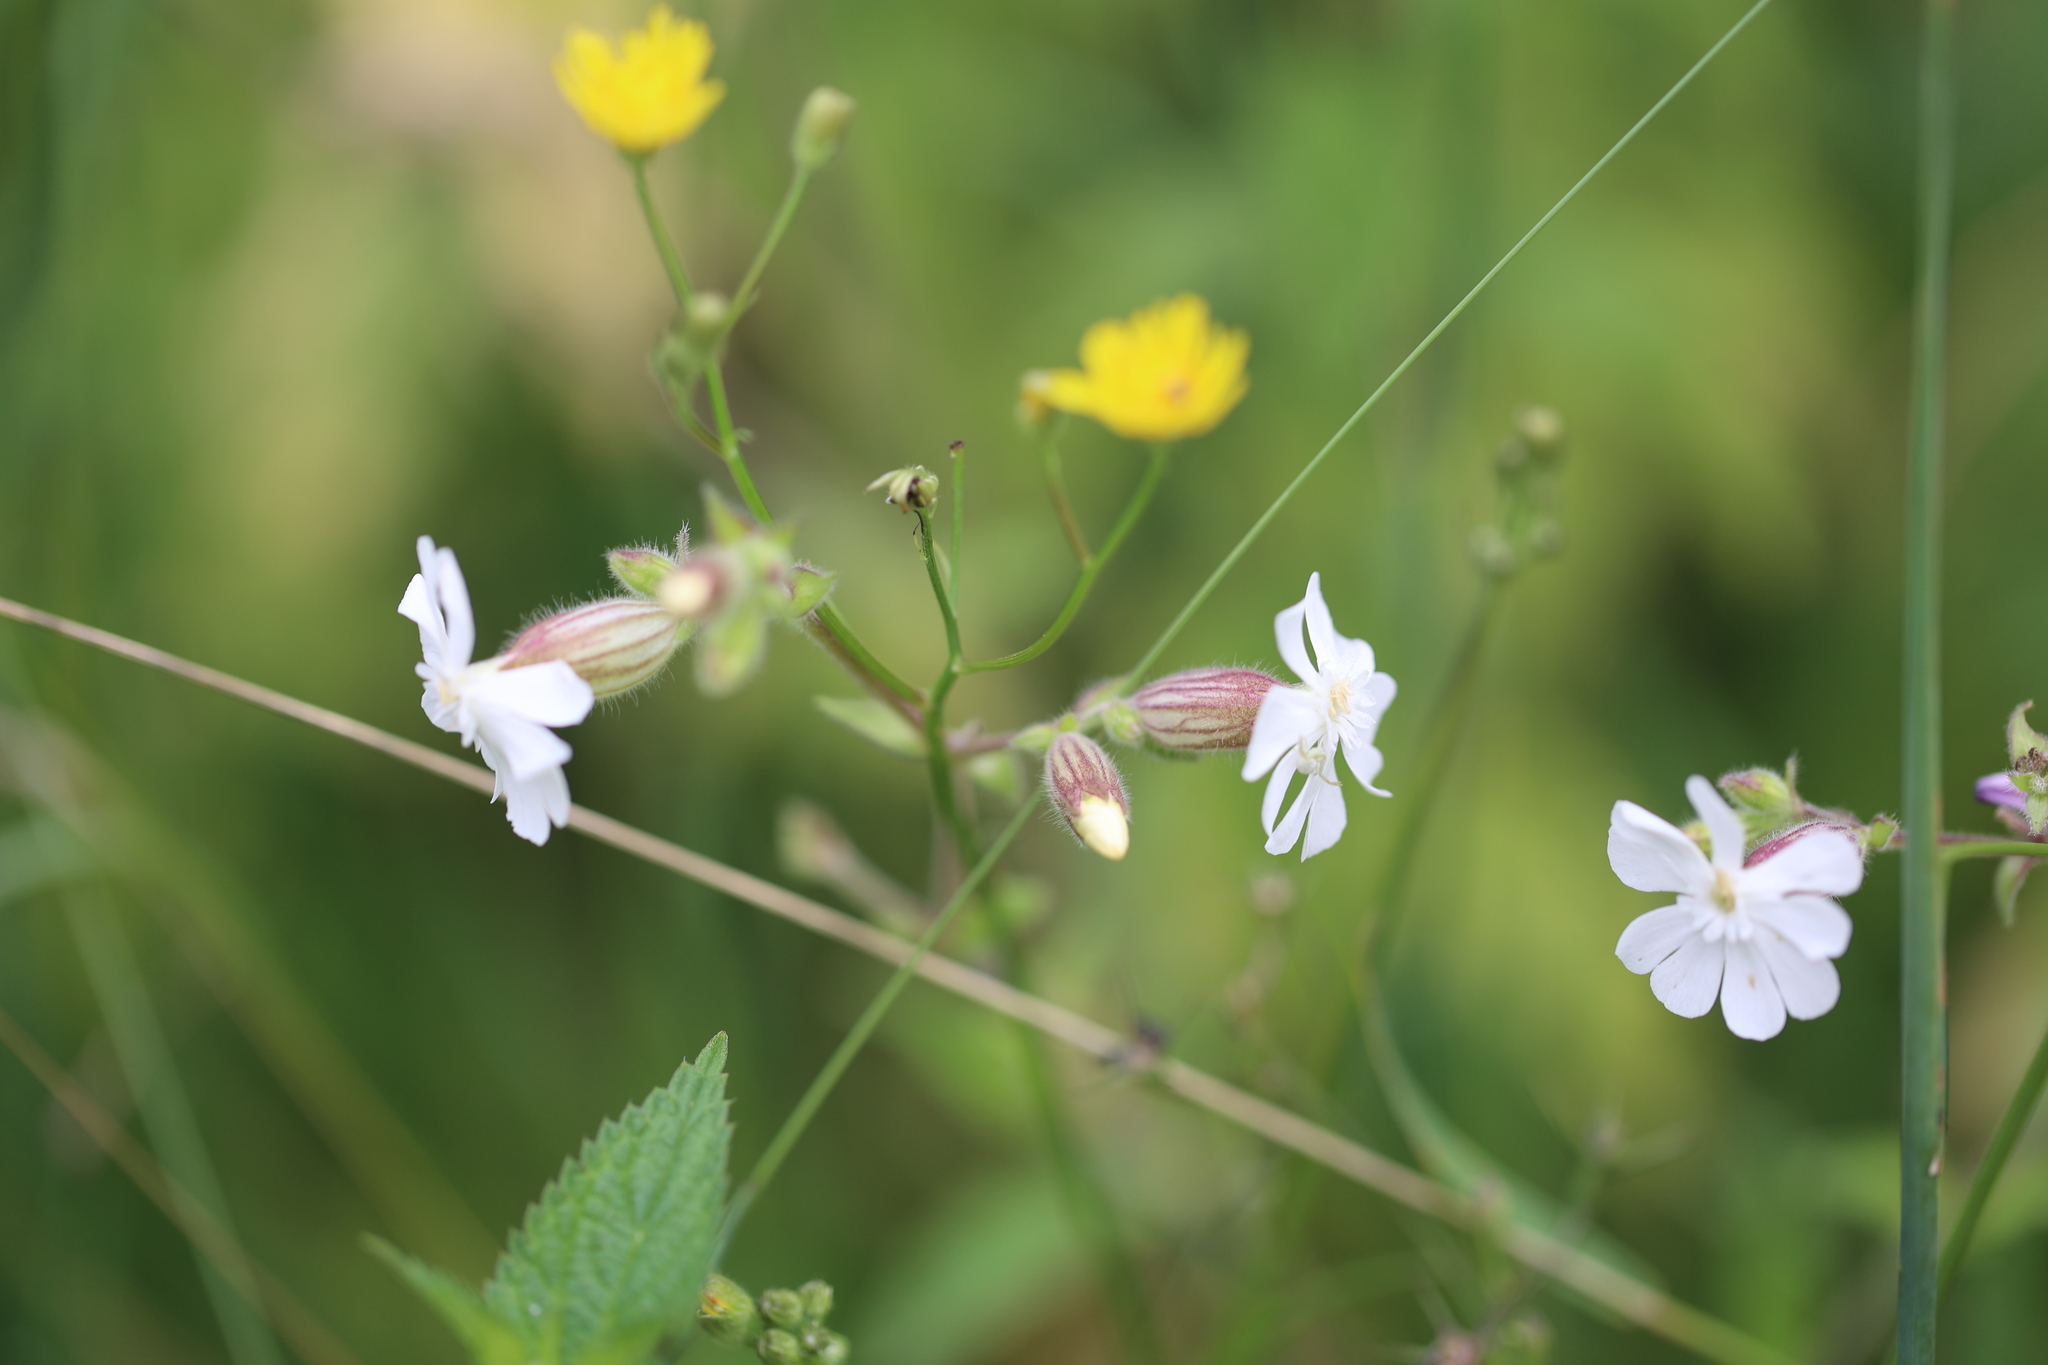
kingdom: Plantae
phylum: Tracheophyta
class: Magnoliopsida
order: Caryophyllales
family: Caryophyllaceae
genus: Silene
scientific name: Silene latifolia
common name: White campion
